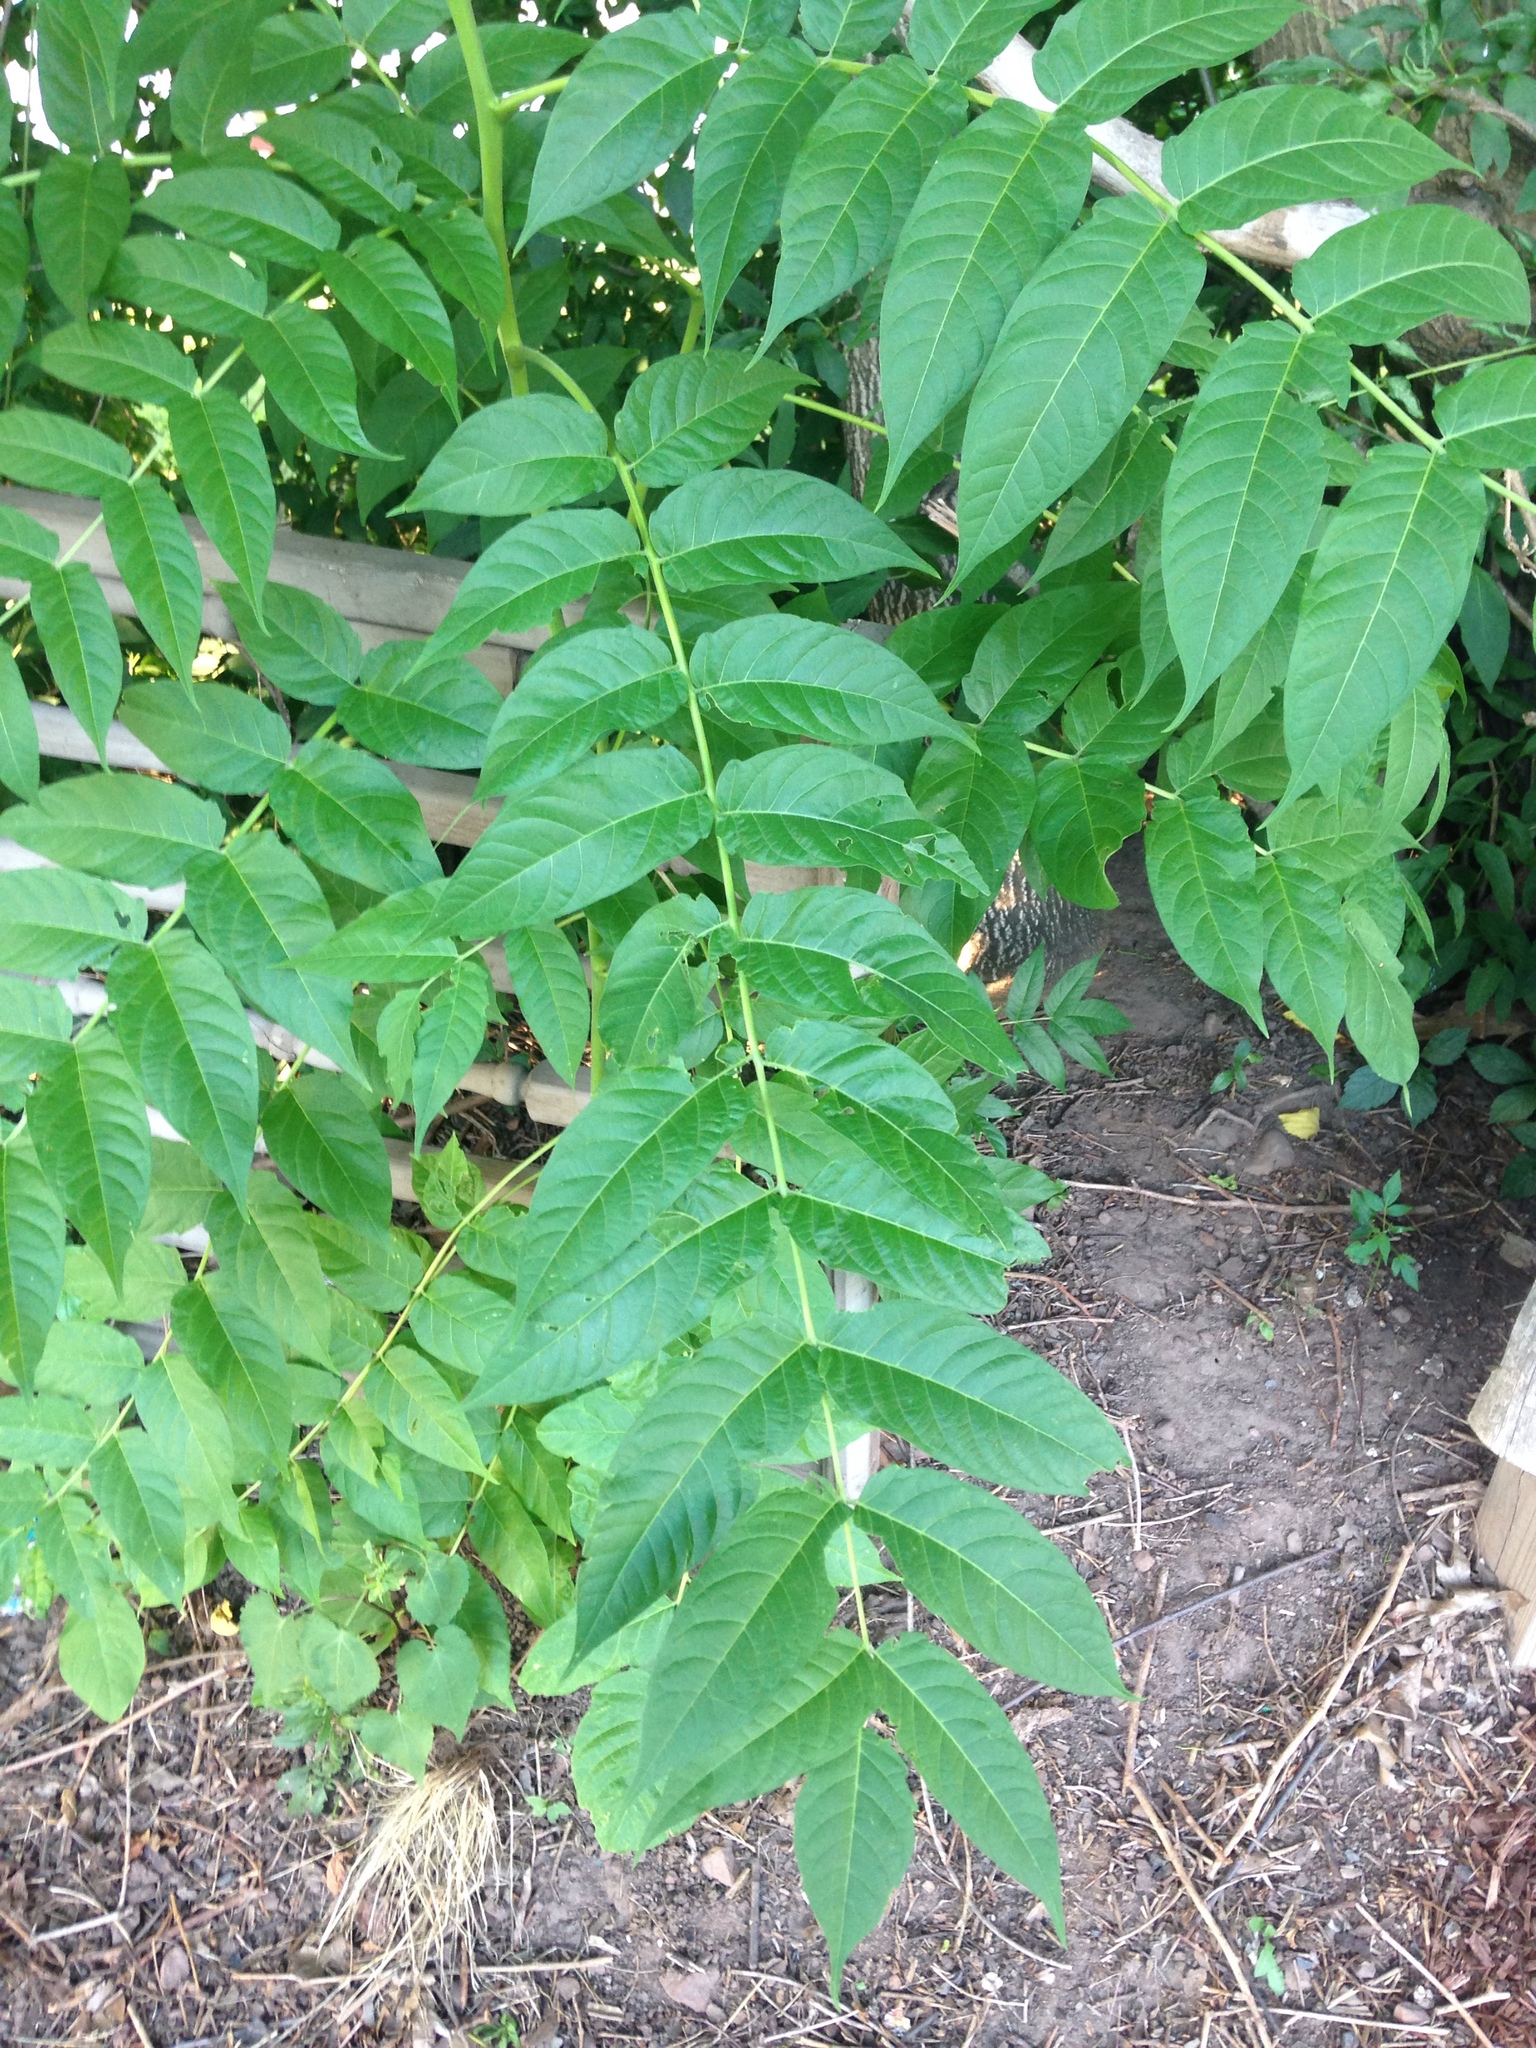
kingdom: Plantae
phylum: Tracheophyta
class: Magnoliopsida
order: Sapindales
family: Simaroubaceae
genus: Ailanthus
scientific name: Ailanthus altissima
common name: Tree-of-heaven
